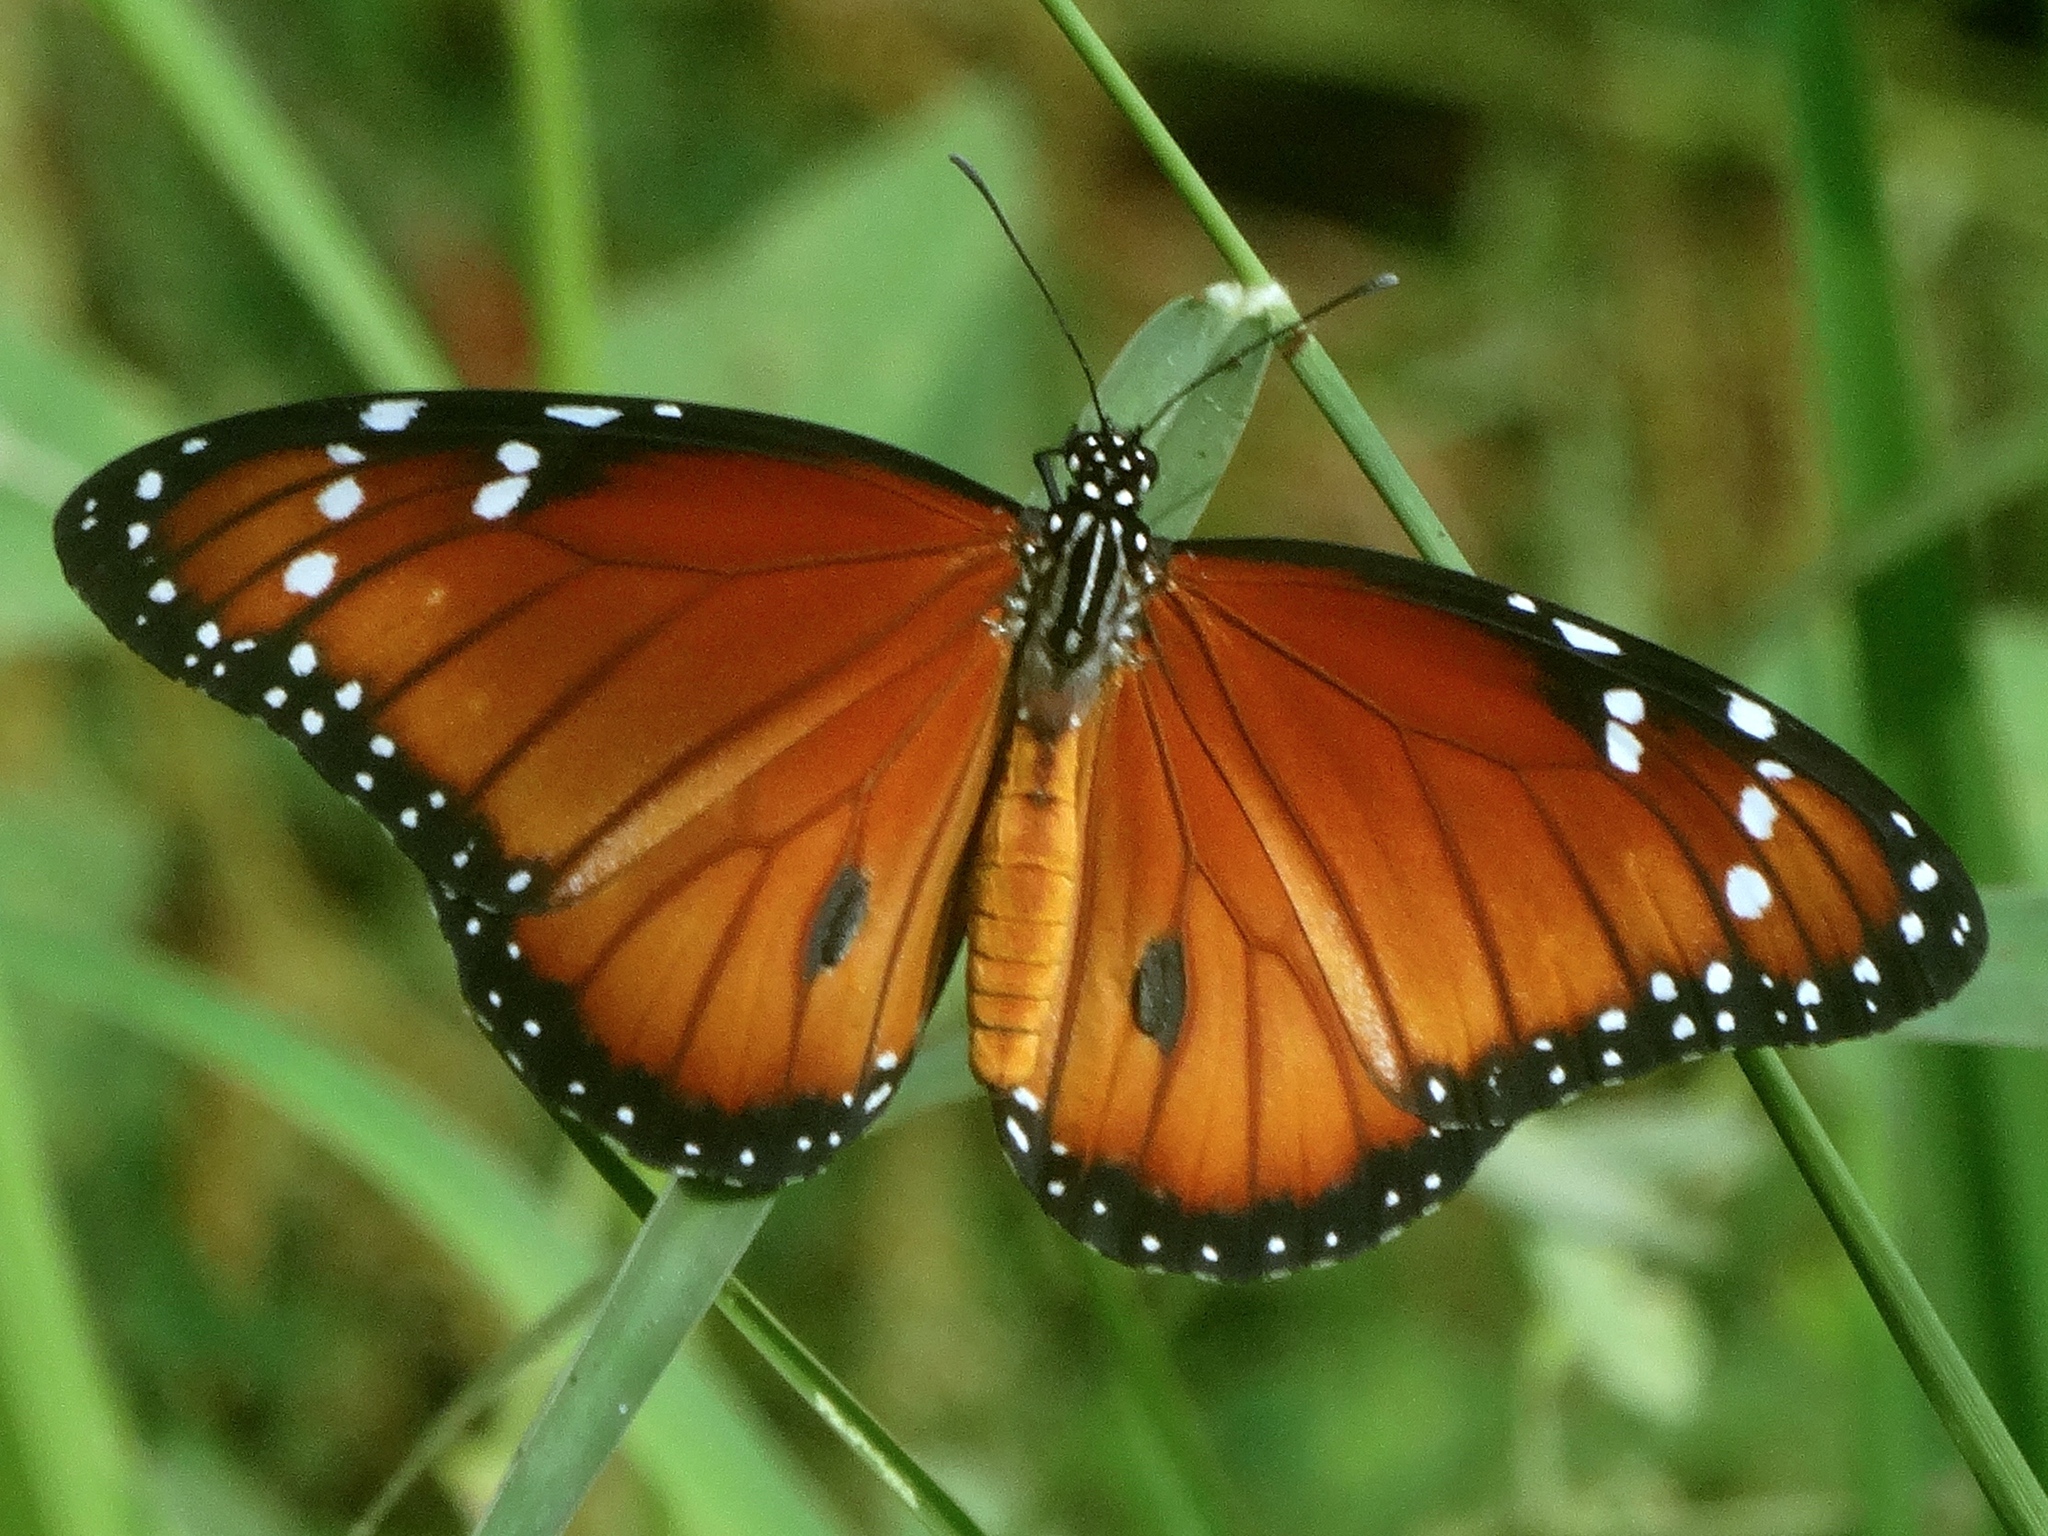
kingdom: Animalia
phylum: Arthropoda
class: Insecta
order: Lepidoptera
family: Nymphalidae
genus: Danaus
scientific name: Danaus eresimus
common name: Soldier
